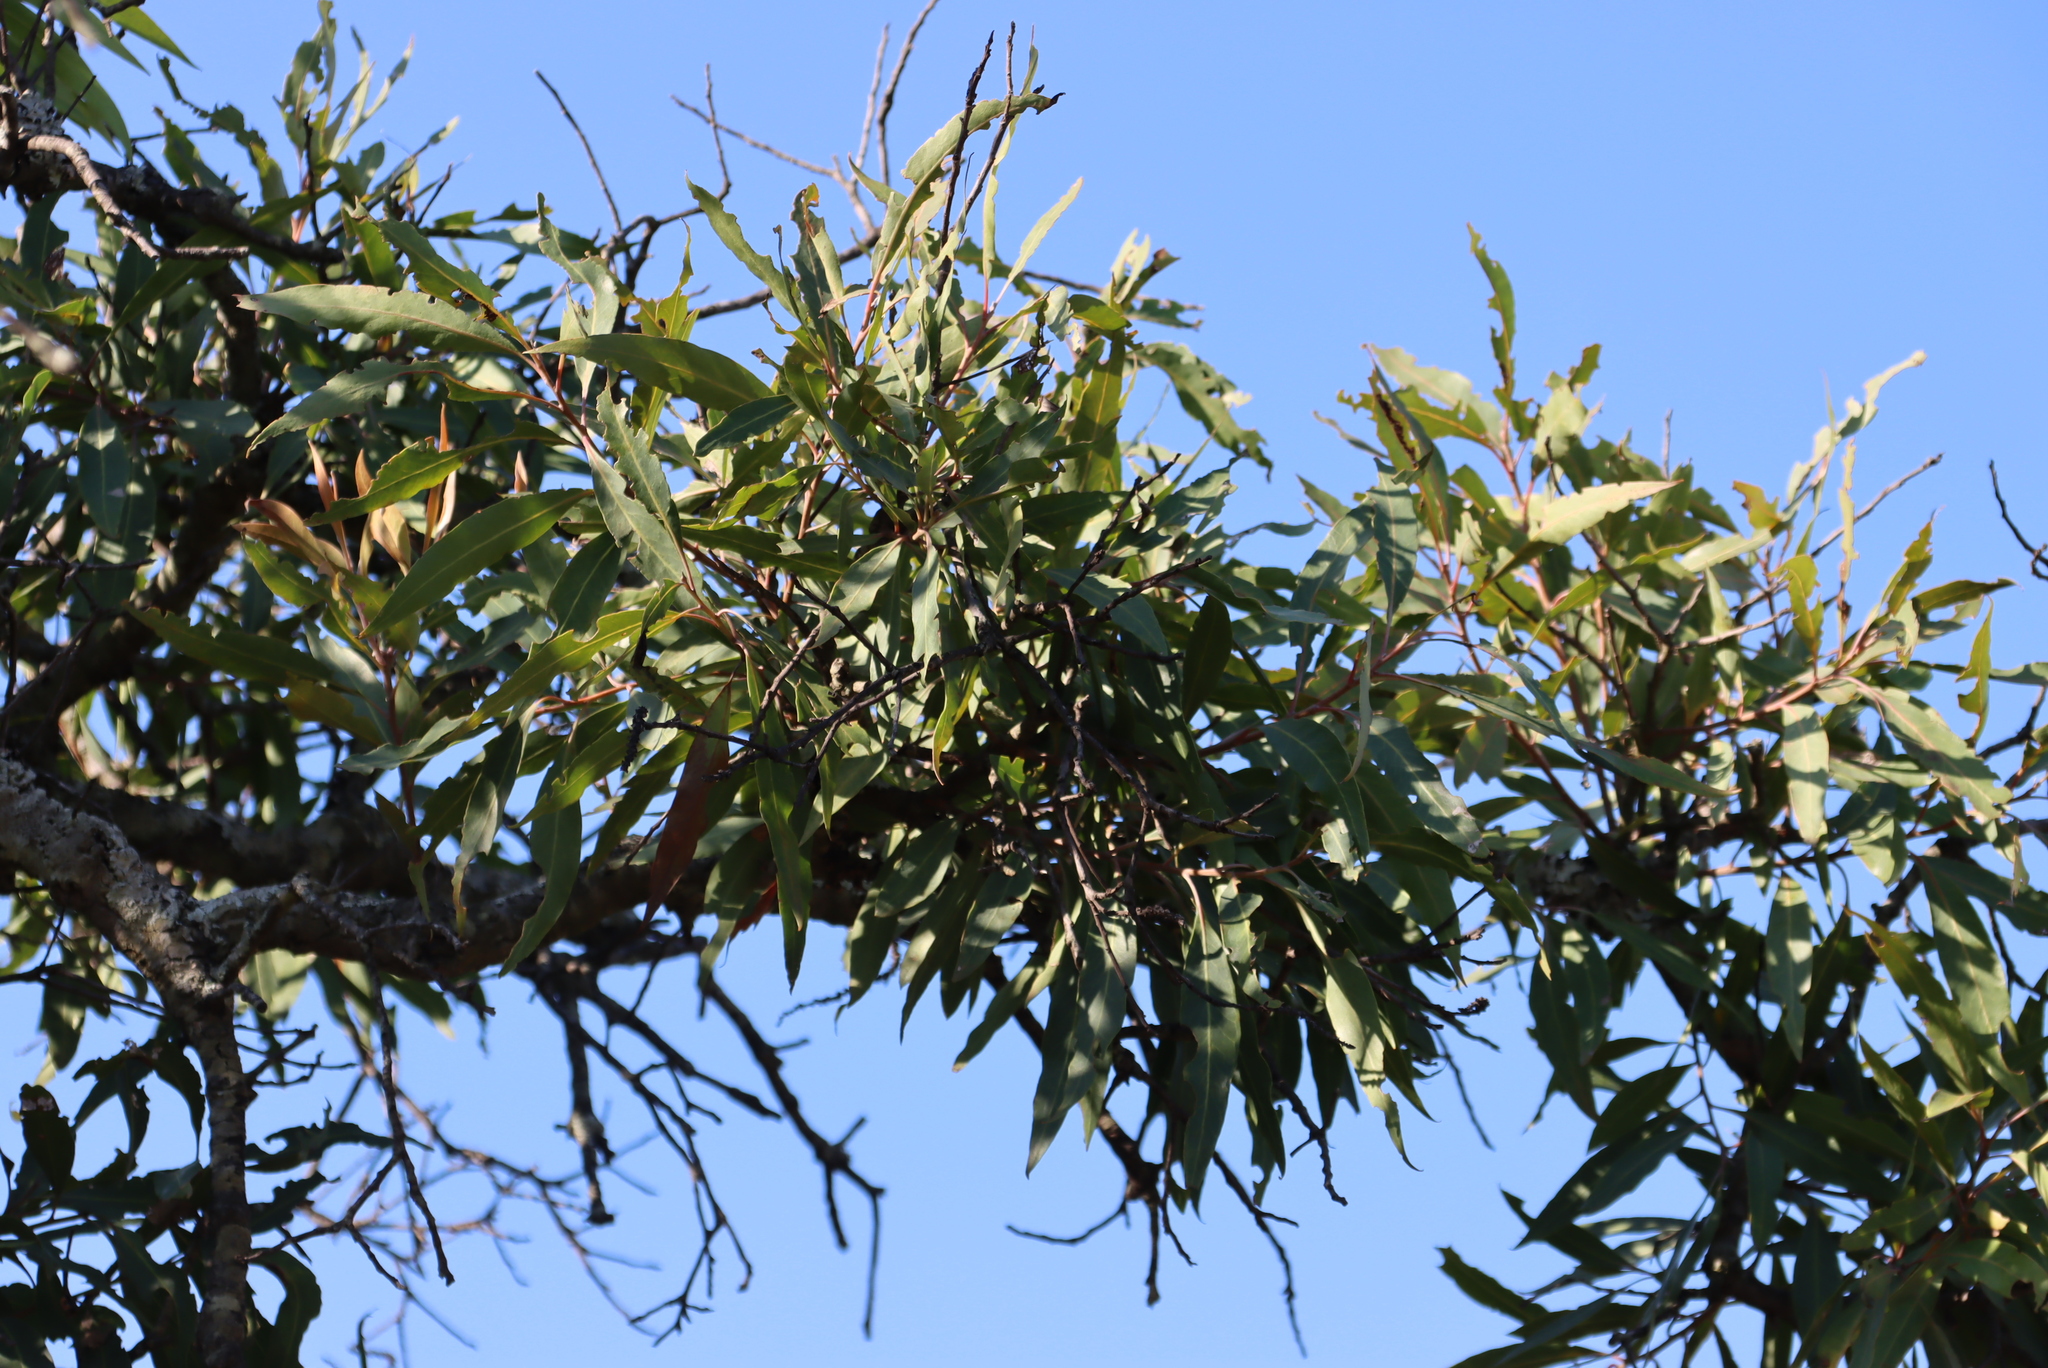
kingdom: Plantae
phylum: Tracheophyta
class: Magnoliopsida
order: Proteales
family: Proteaceae
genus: Faurea
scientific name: Faurea saligna
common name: African bean
